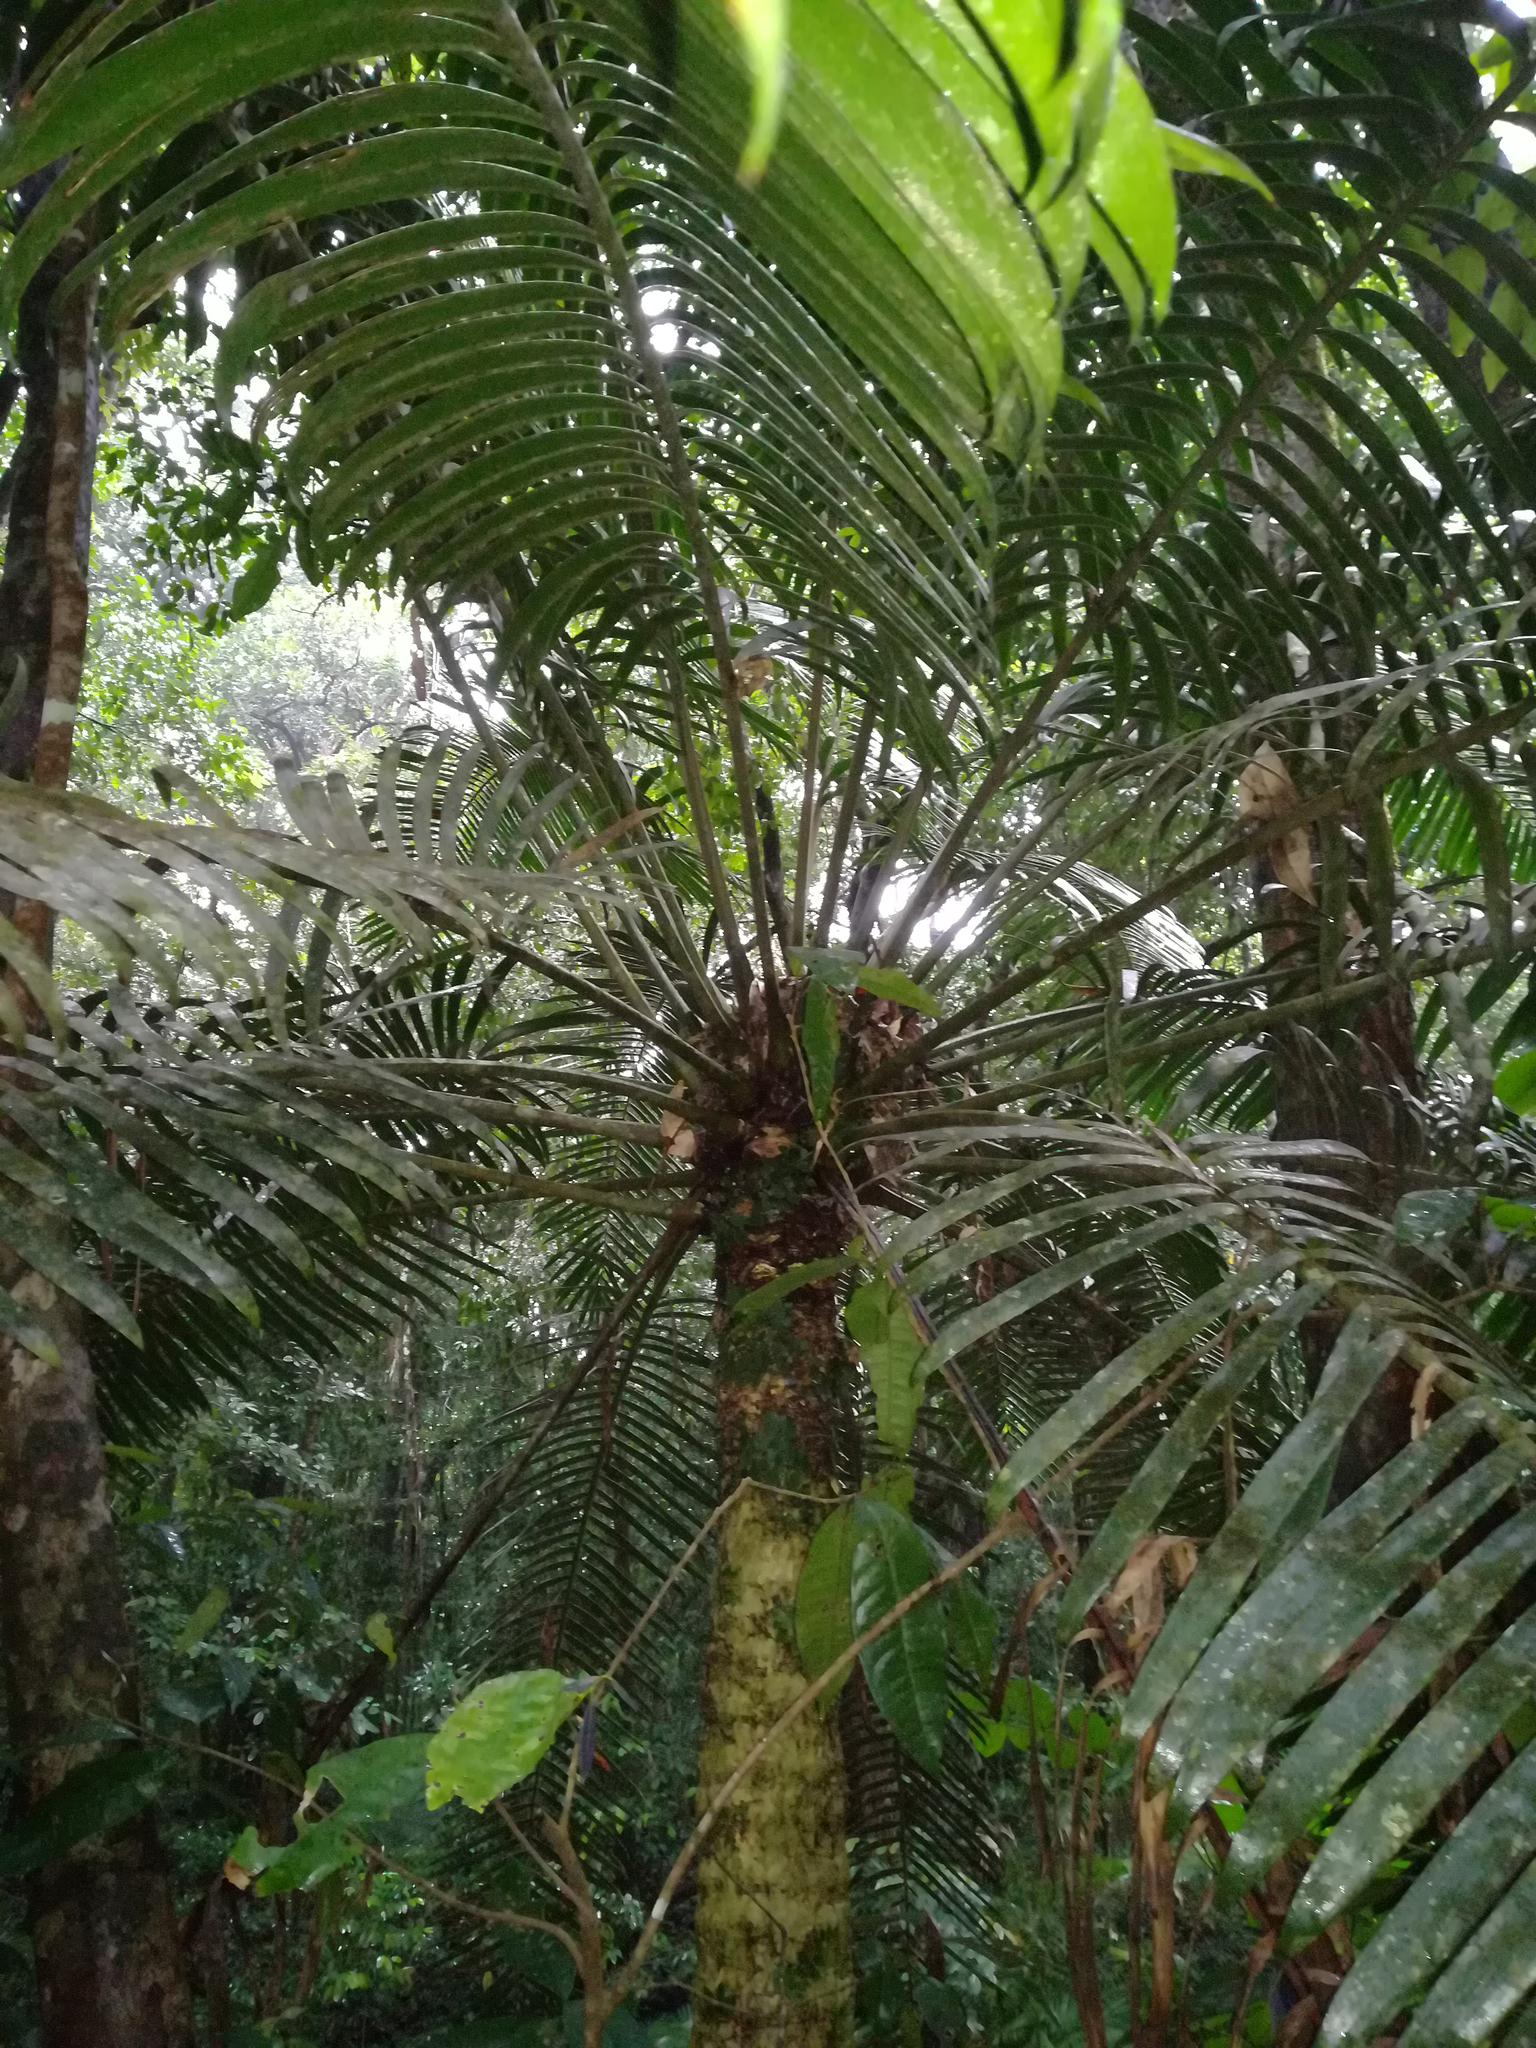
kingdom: Plantae
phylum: Tracheophyta
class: Cycadopsida
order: Cycadales
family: Zamiaceae
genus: Lepidozamia
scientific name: Lepidozamia hopei
